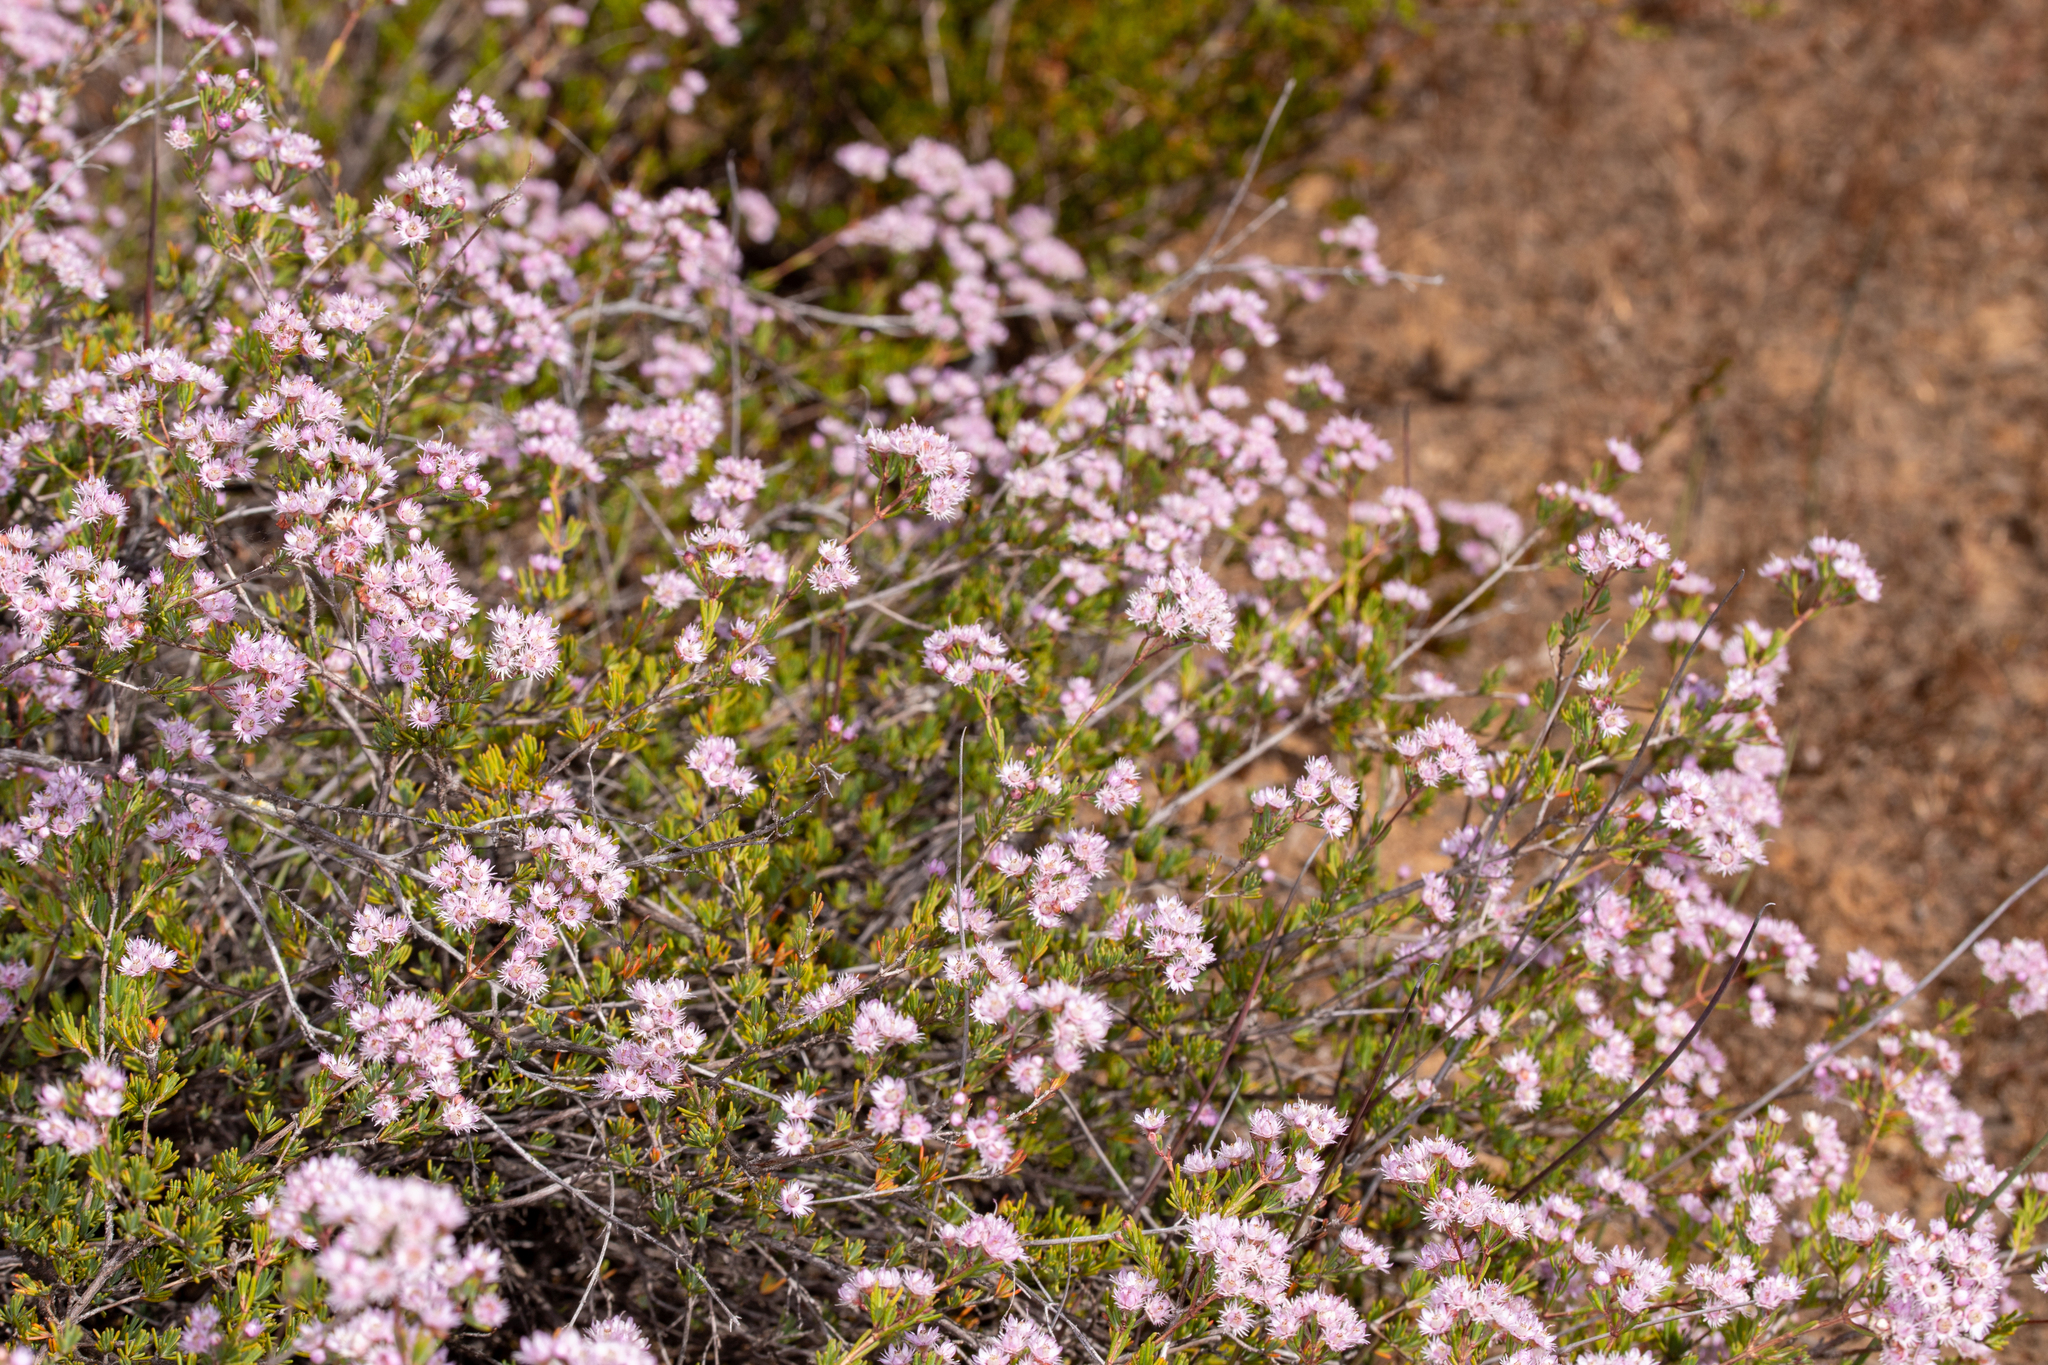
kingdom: Plantae
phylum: Tracheophyta
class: Magnoliopsida
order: Myrtales
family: Myrtaceae
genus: Verticordia
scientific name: Verticordia plumosa
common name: Plume feather-flower
